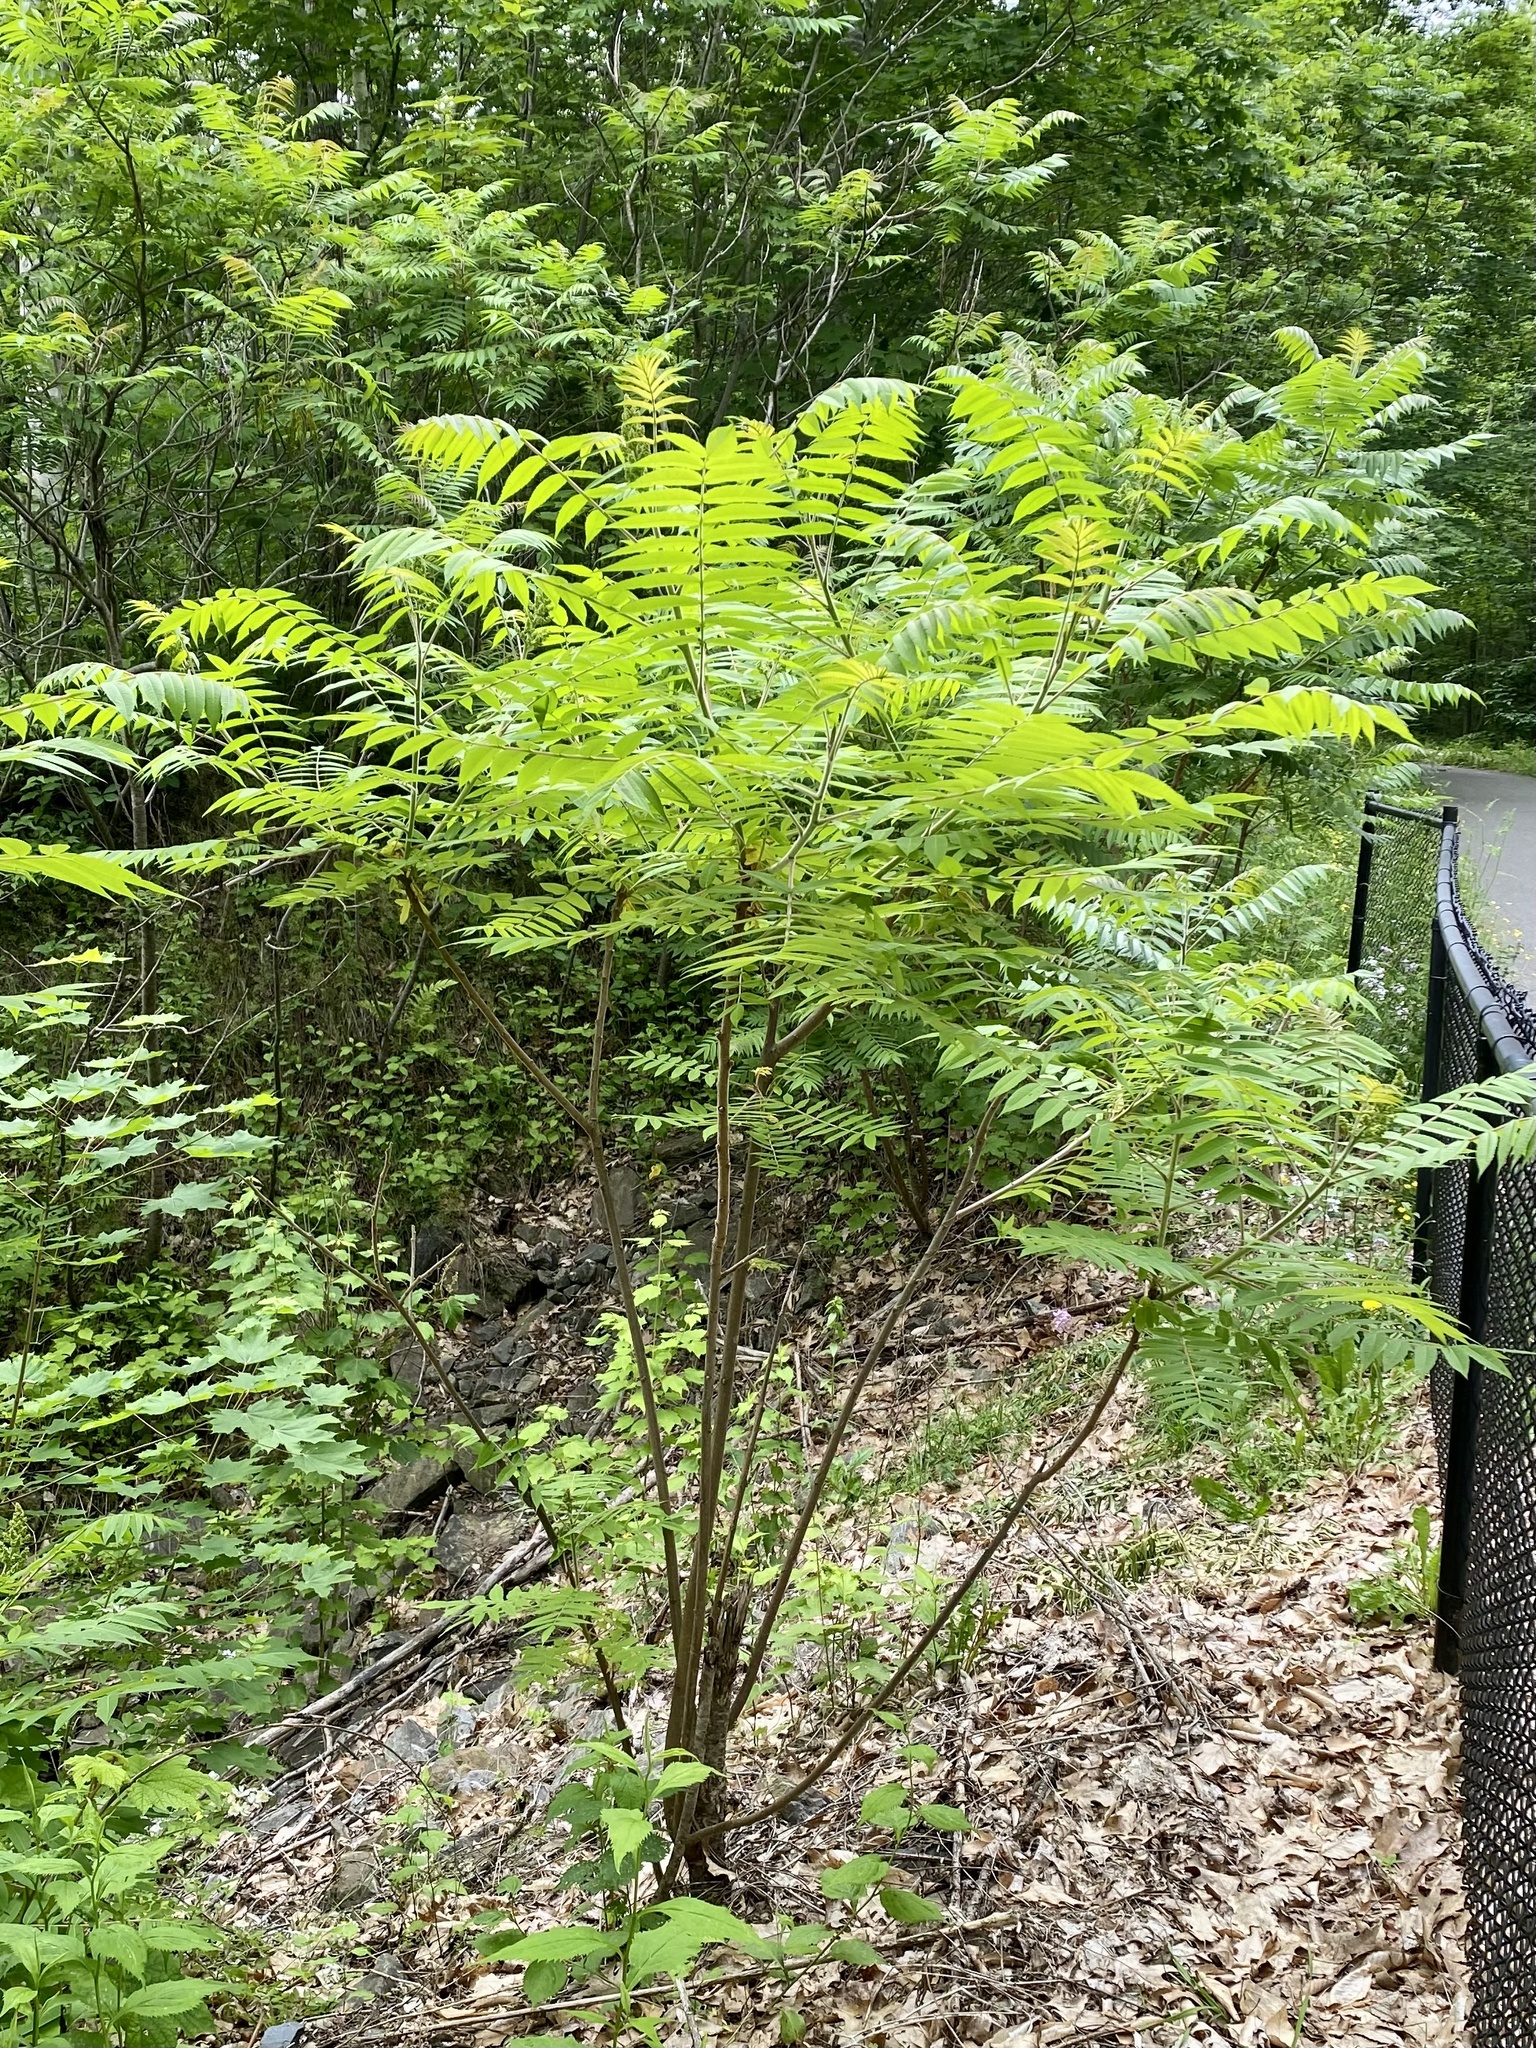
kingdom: Plantae
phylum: Tracheophyta
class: Magnoliopsida
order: Sapindales
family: Anacardiaceae
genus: Rhus
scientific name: Rhus typhina
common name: Staghorn sumac
